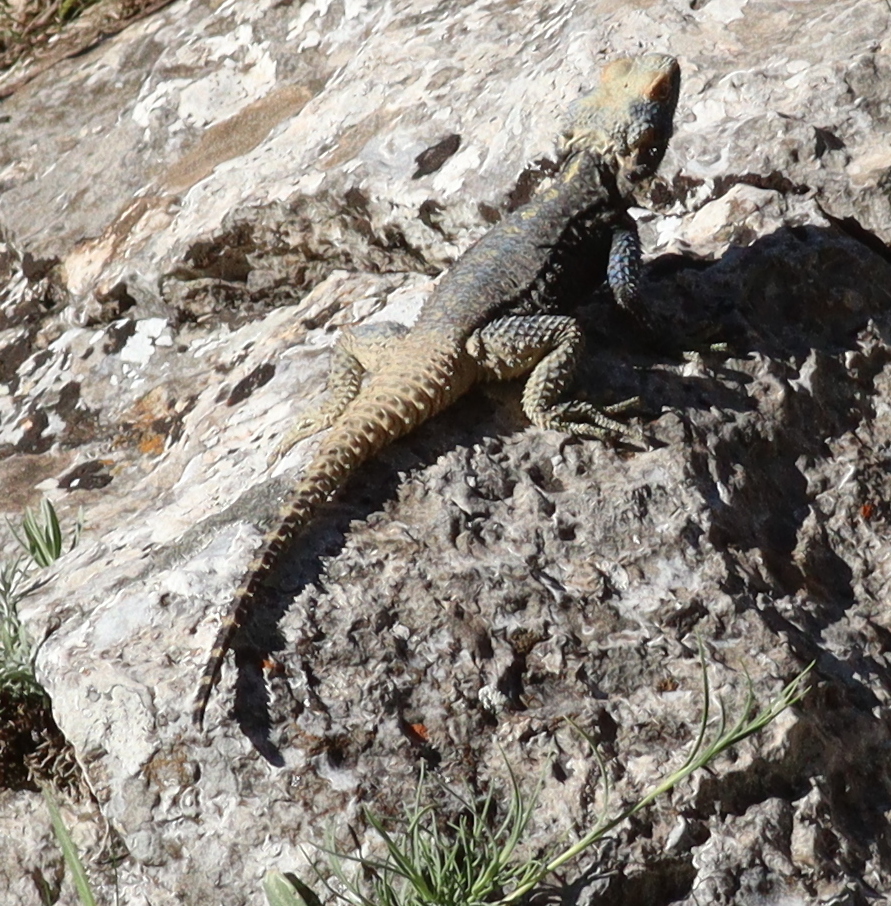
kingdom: Animalia
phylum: Chordata
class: Squamata
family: Agamidae
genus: Stellagama
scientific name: Stellagama stellio
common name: Starred agama
